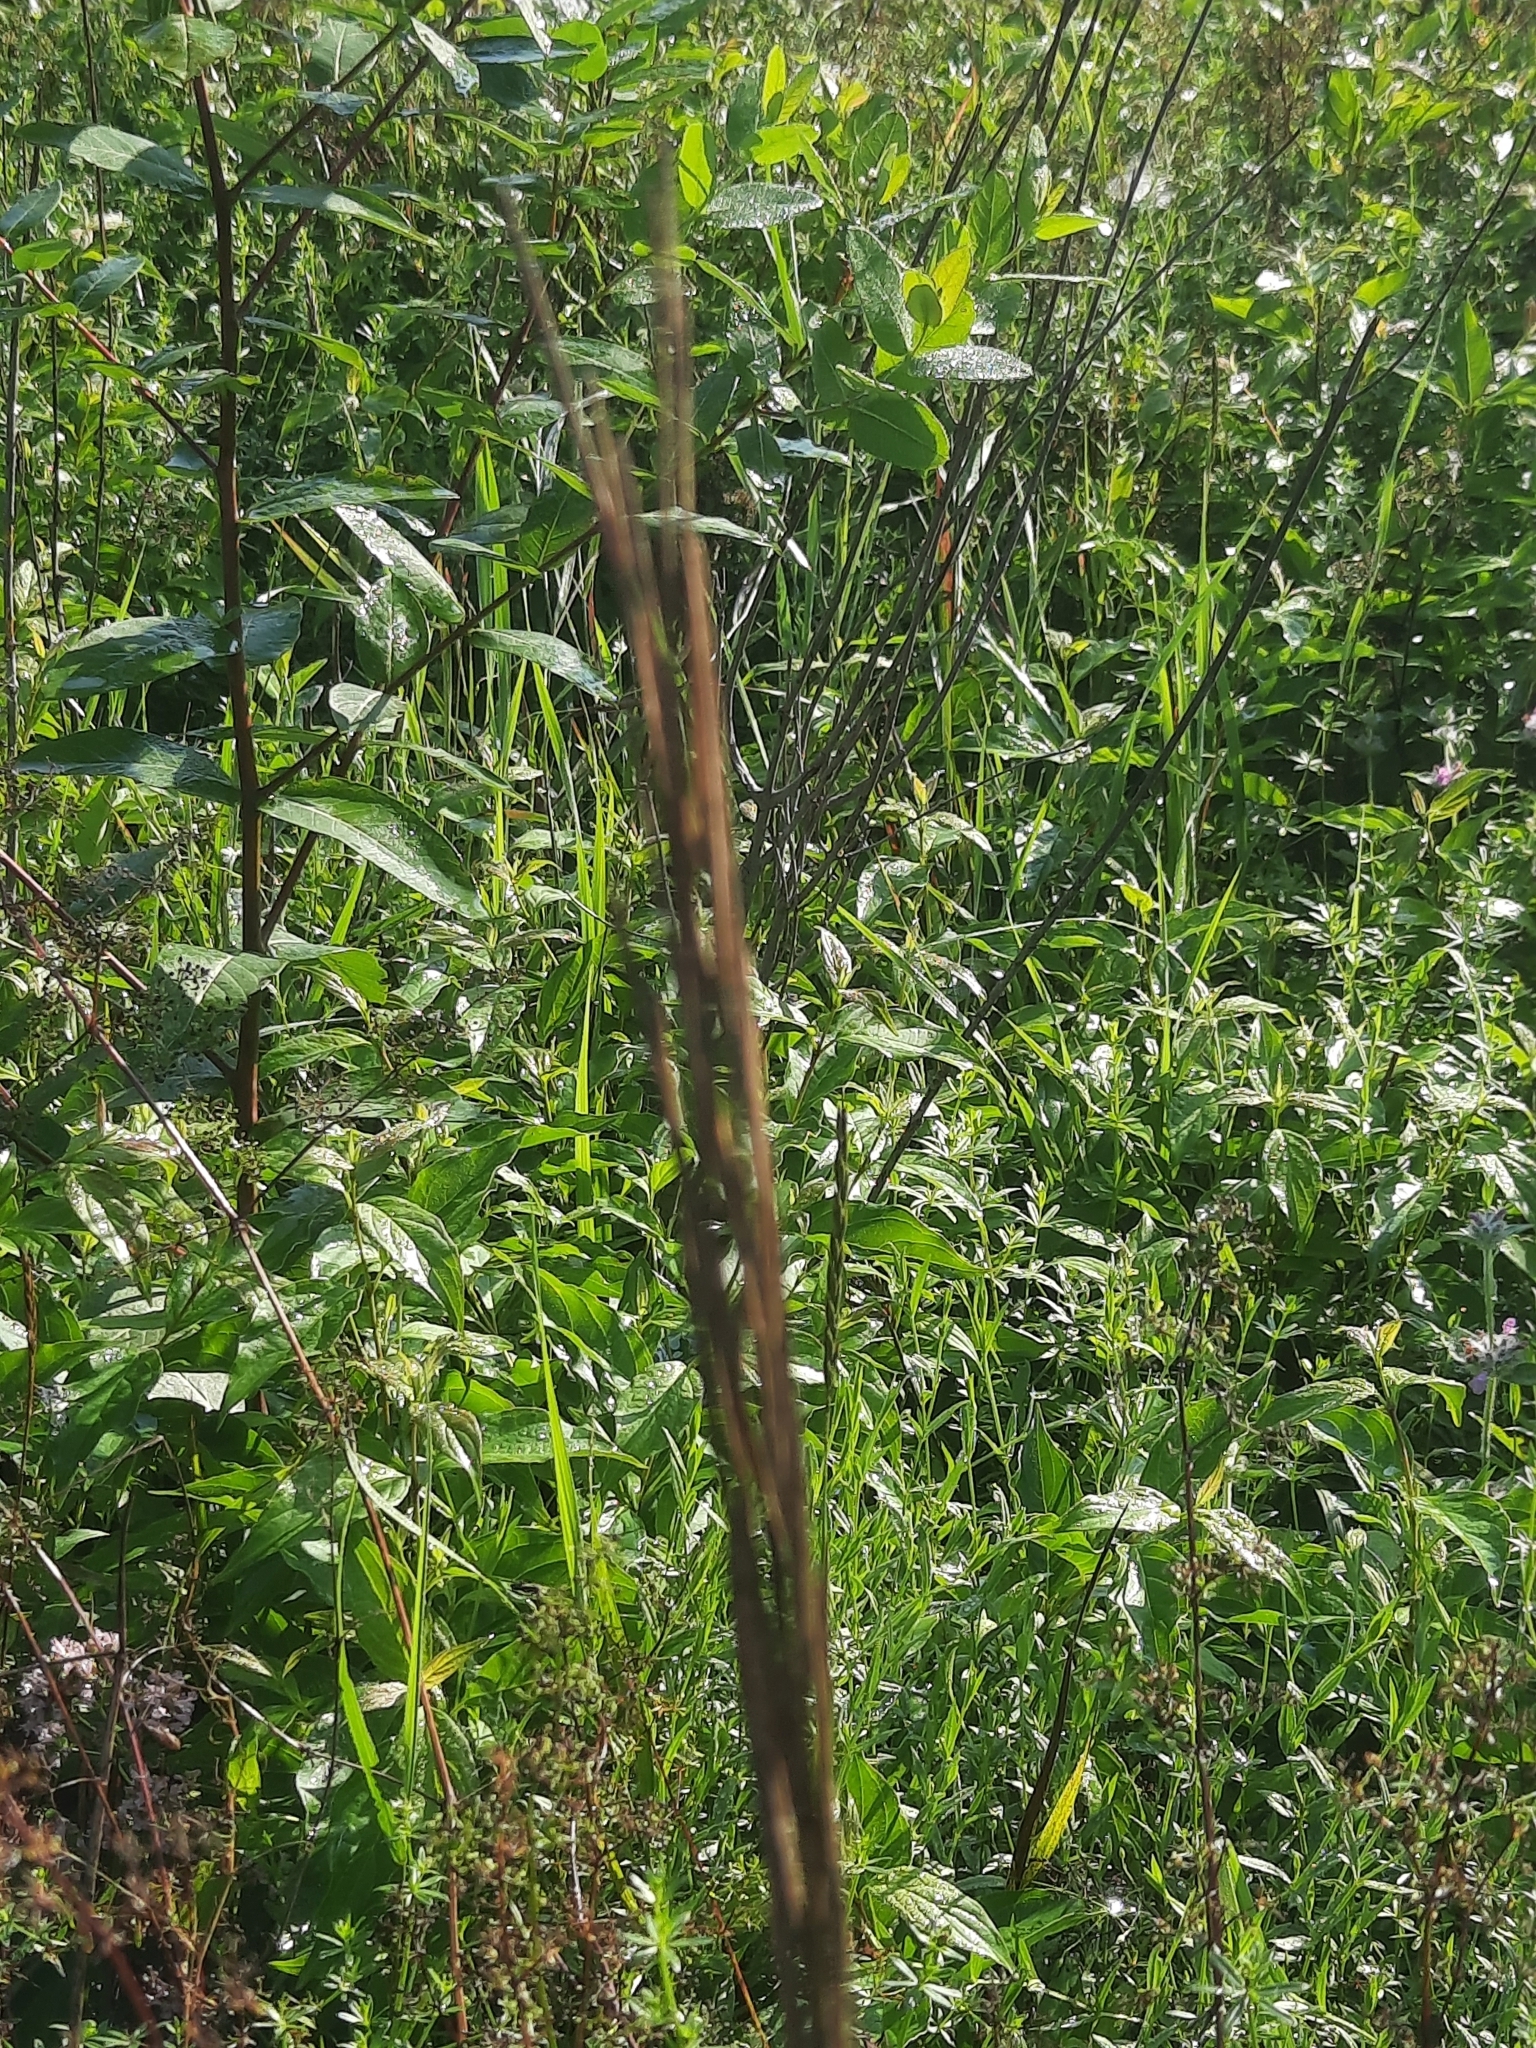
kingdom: Plantae
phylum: Tracheophyta
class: Magnoliopsida
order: Brassicales
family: Brassicaceae
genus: Turritis
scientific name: Turritis glabra
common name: Tower rockcress
